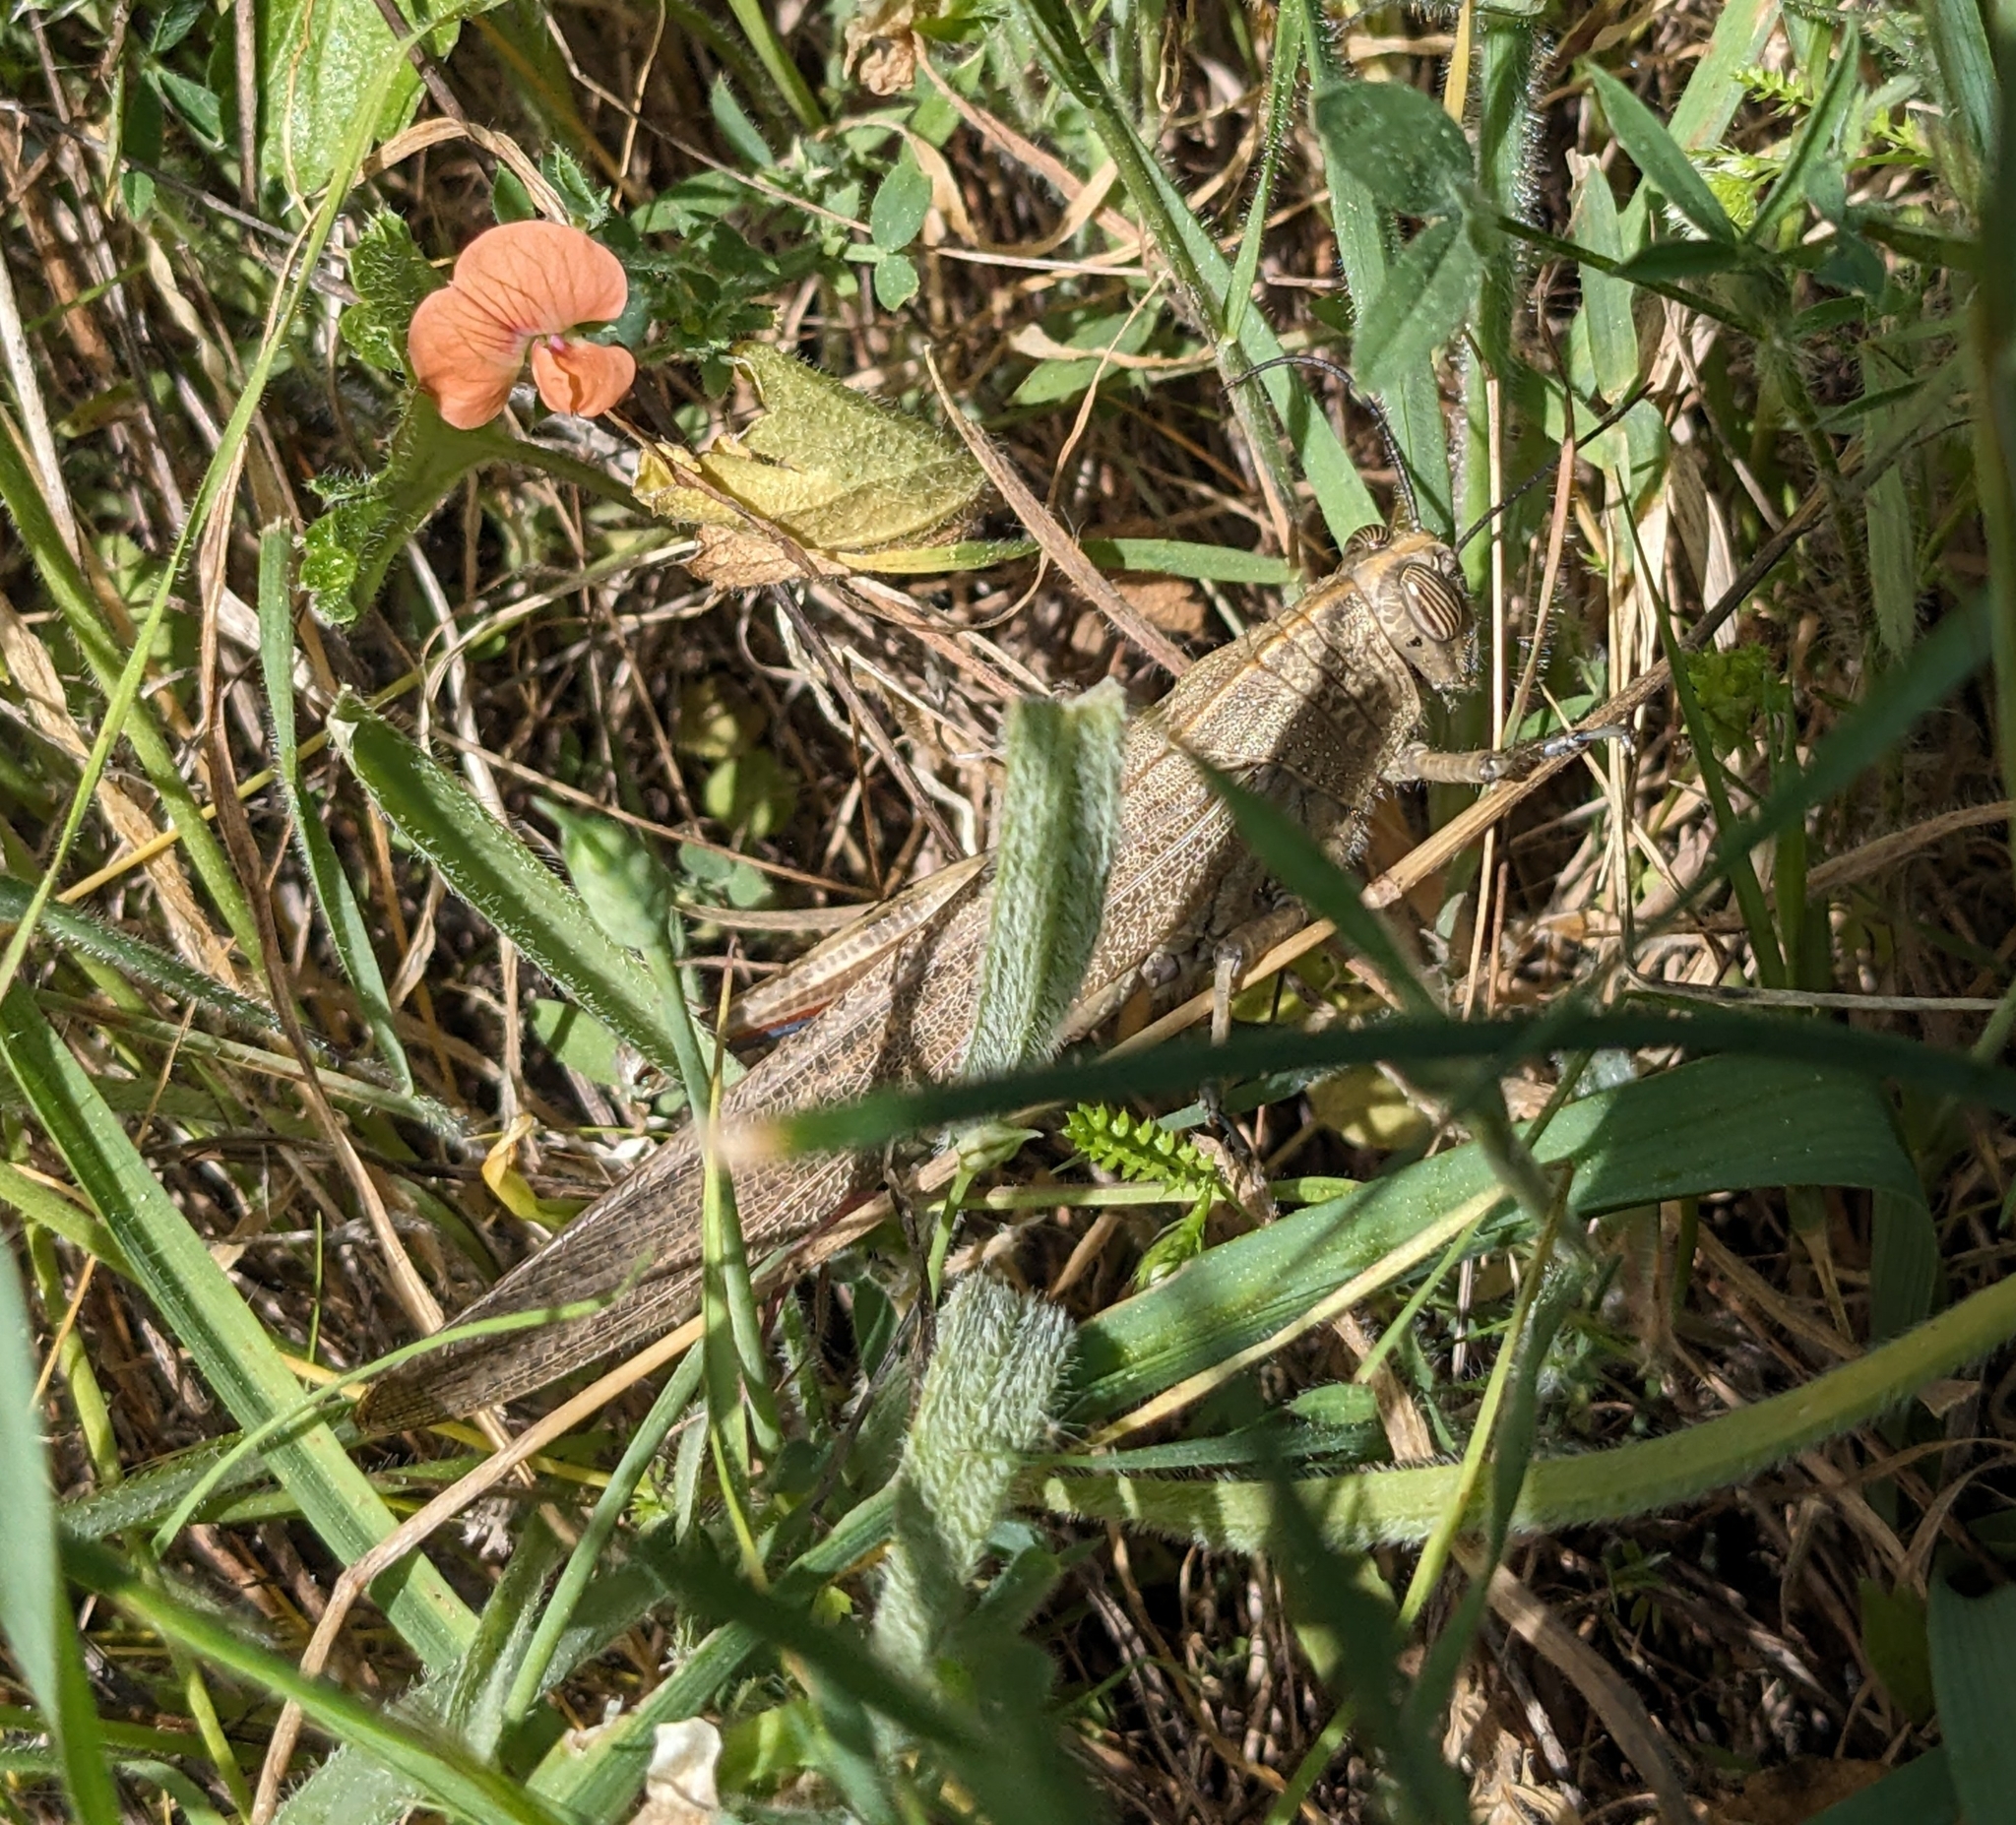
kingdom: Animalia
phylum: Arthropoda
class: Insecta
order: Orthoptera
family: Acrididae
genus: Anacridium
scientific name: Anacridium aegyptium
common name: Egyptian grasshopper
